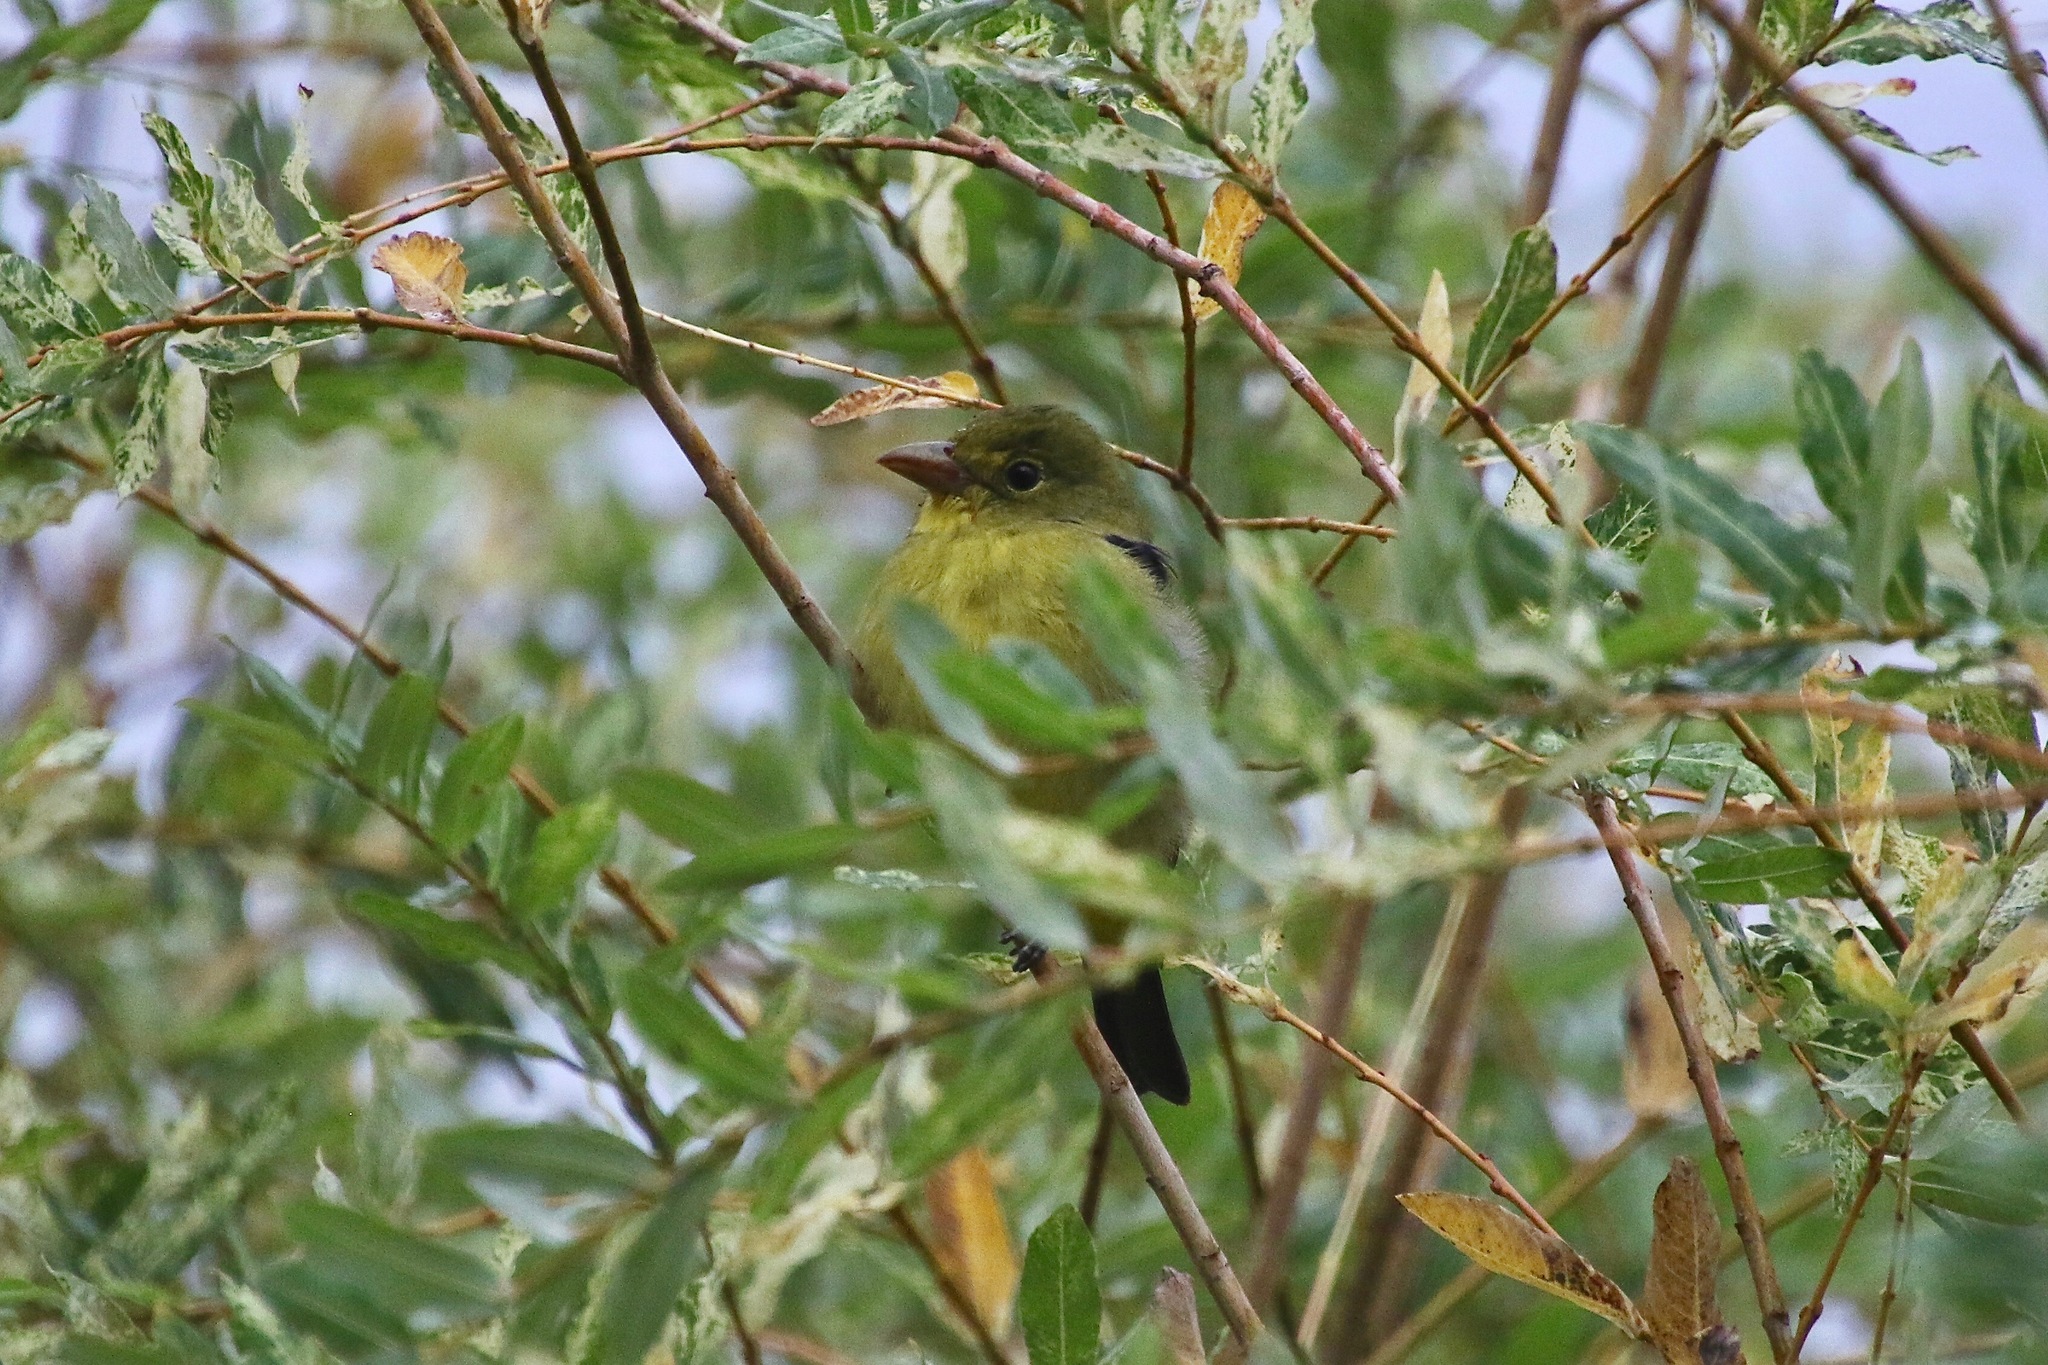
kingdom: Animalia
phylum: Chordata
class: Aves
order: Passeriformes
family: Cardinalidae
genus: Piranga
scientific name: Piranga olivacea
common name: Scarlet tanager
